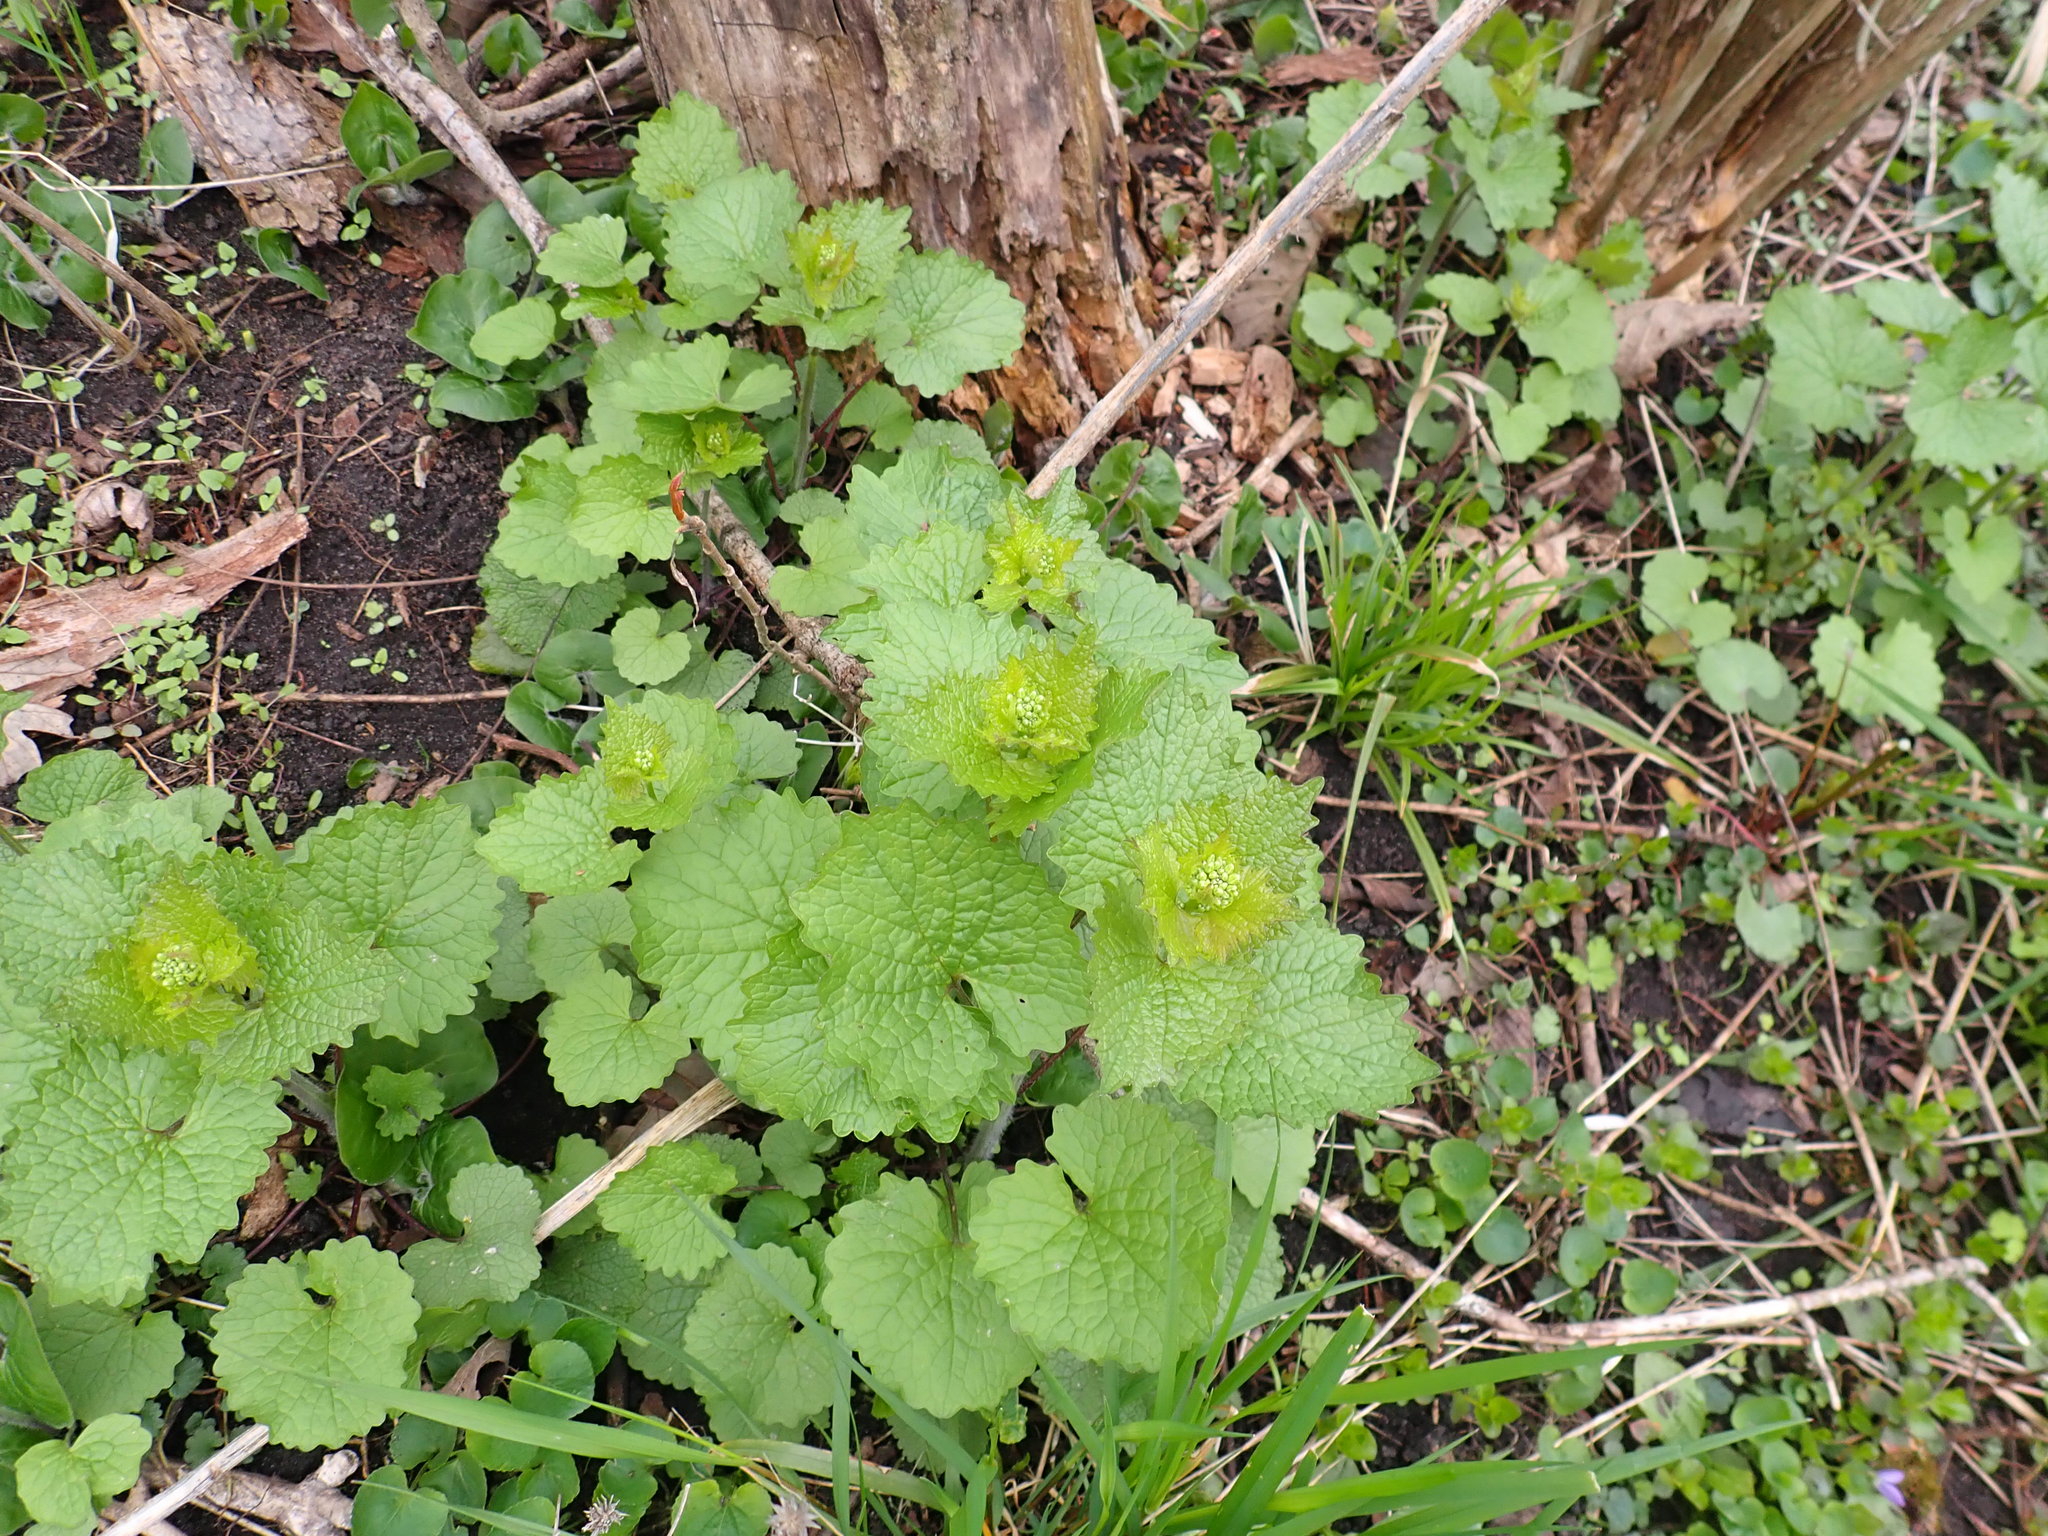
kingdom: Plantae
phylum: Tracheophyta
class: Magnoliopsida
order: Brassicales
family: Brassicaceae
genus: Alliaria
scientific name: Alliaria petiolata
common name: Garlic mustard
